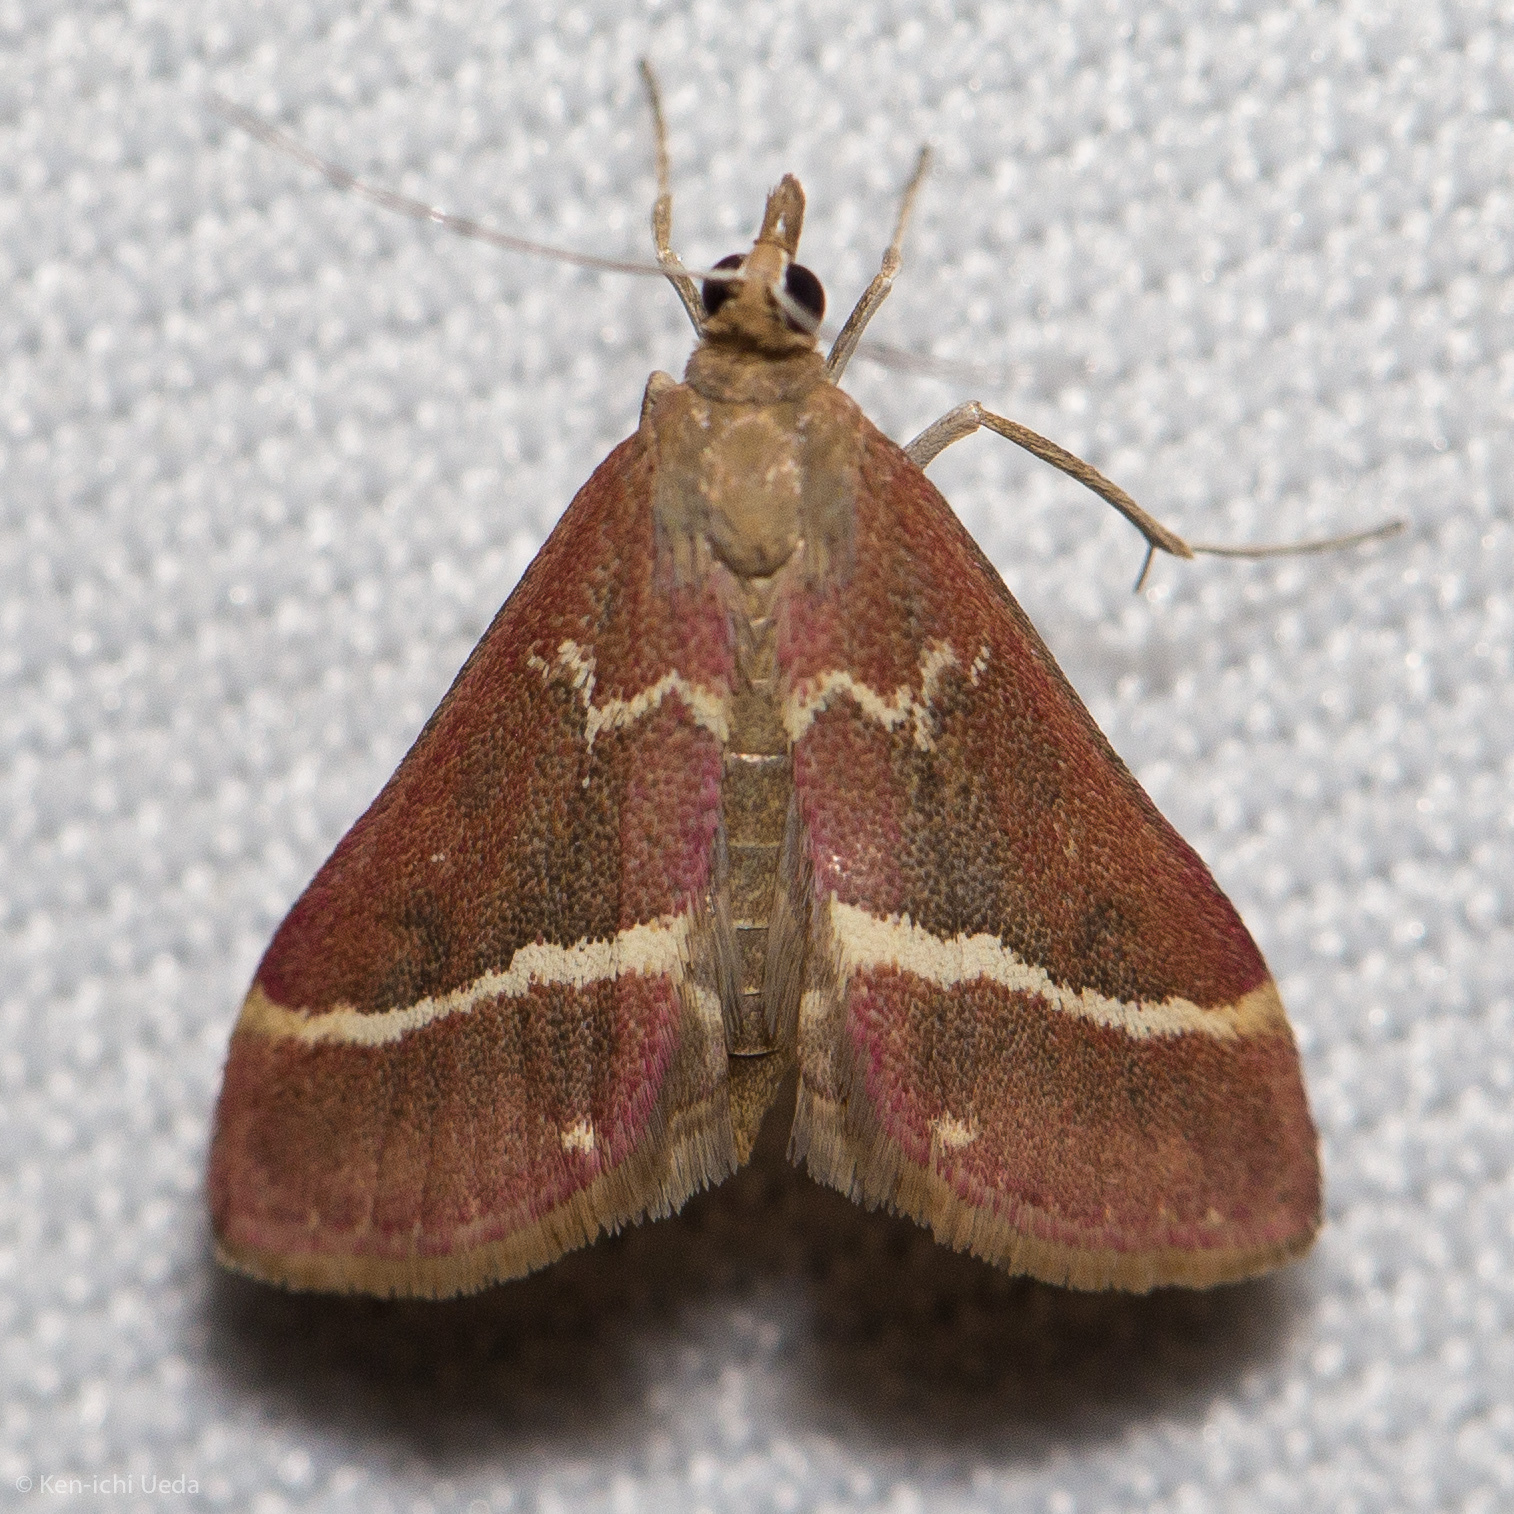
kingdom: Animalia
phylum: Arthropoda
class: Insecta
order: Lepidoptera
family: Crambidae
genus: Pyrausta
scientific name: Pyrausta volupialis
